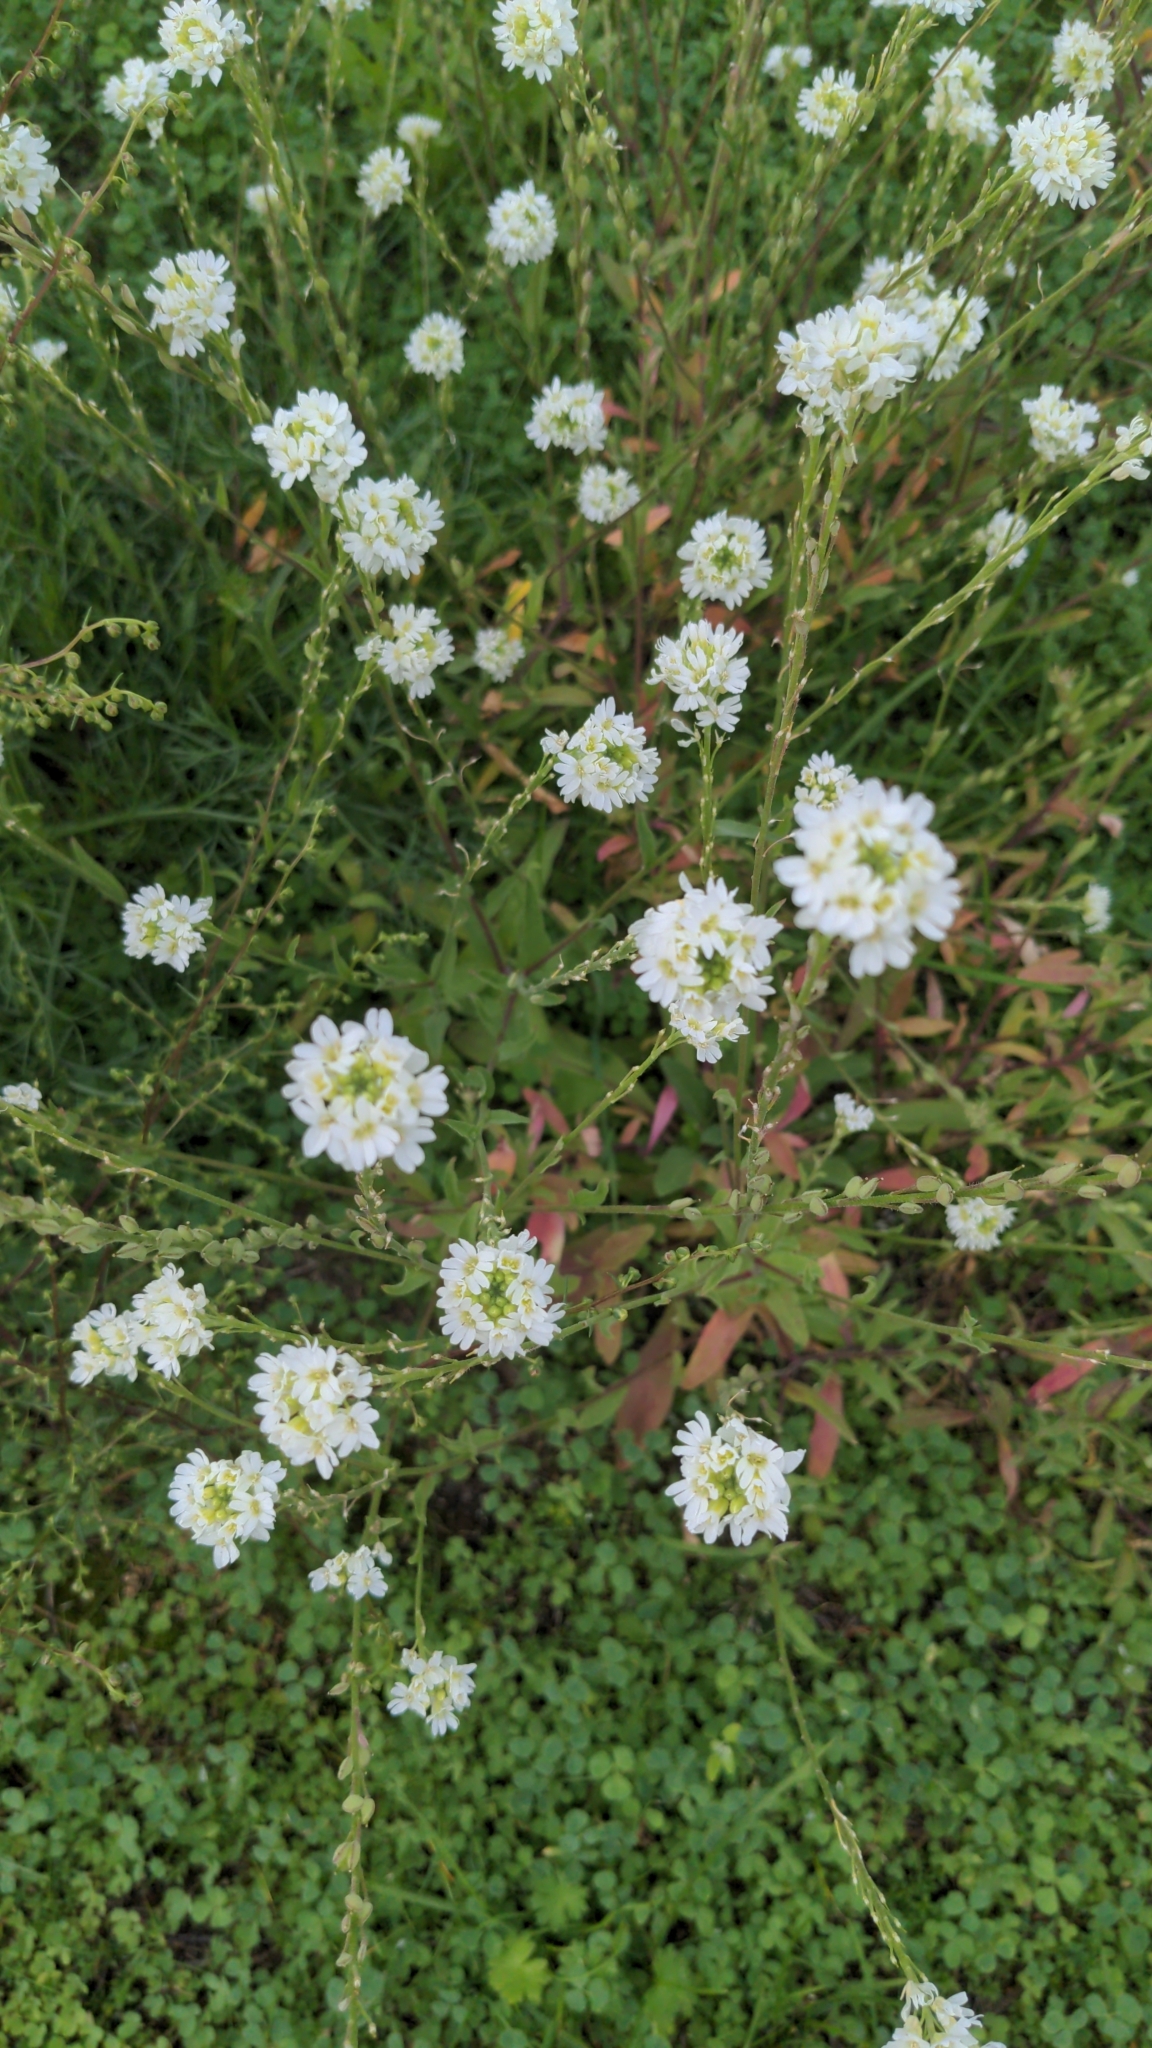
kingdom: Plantae
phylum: Tracheophyta
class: Magnoliopsida
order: Brassicales
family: Brassicaceae
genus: Berteroa
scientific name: Berteroa incana
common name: Hoary alison
